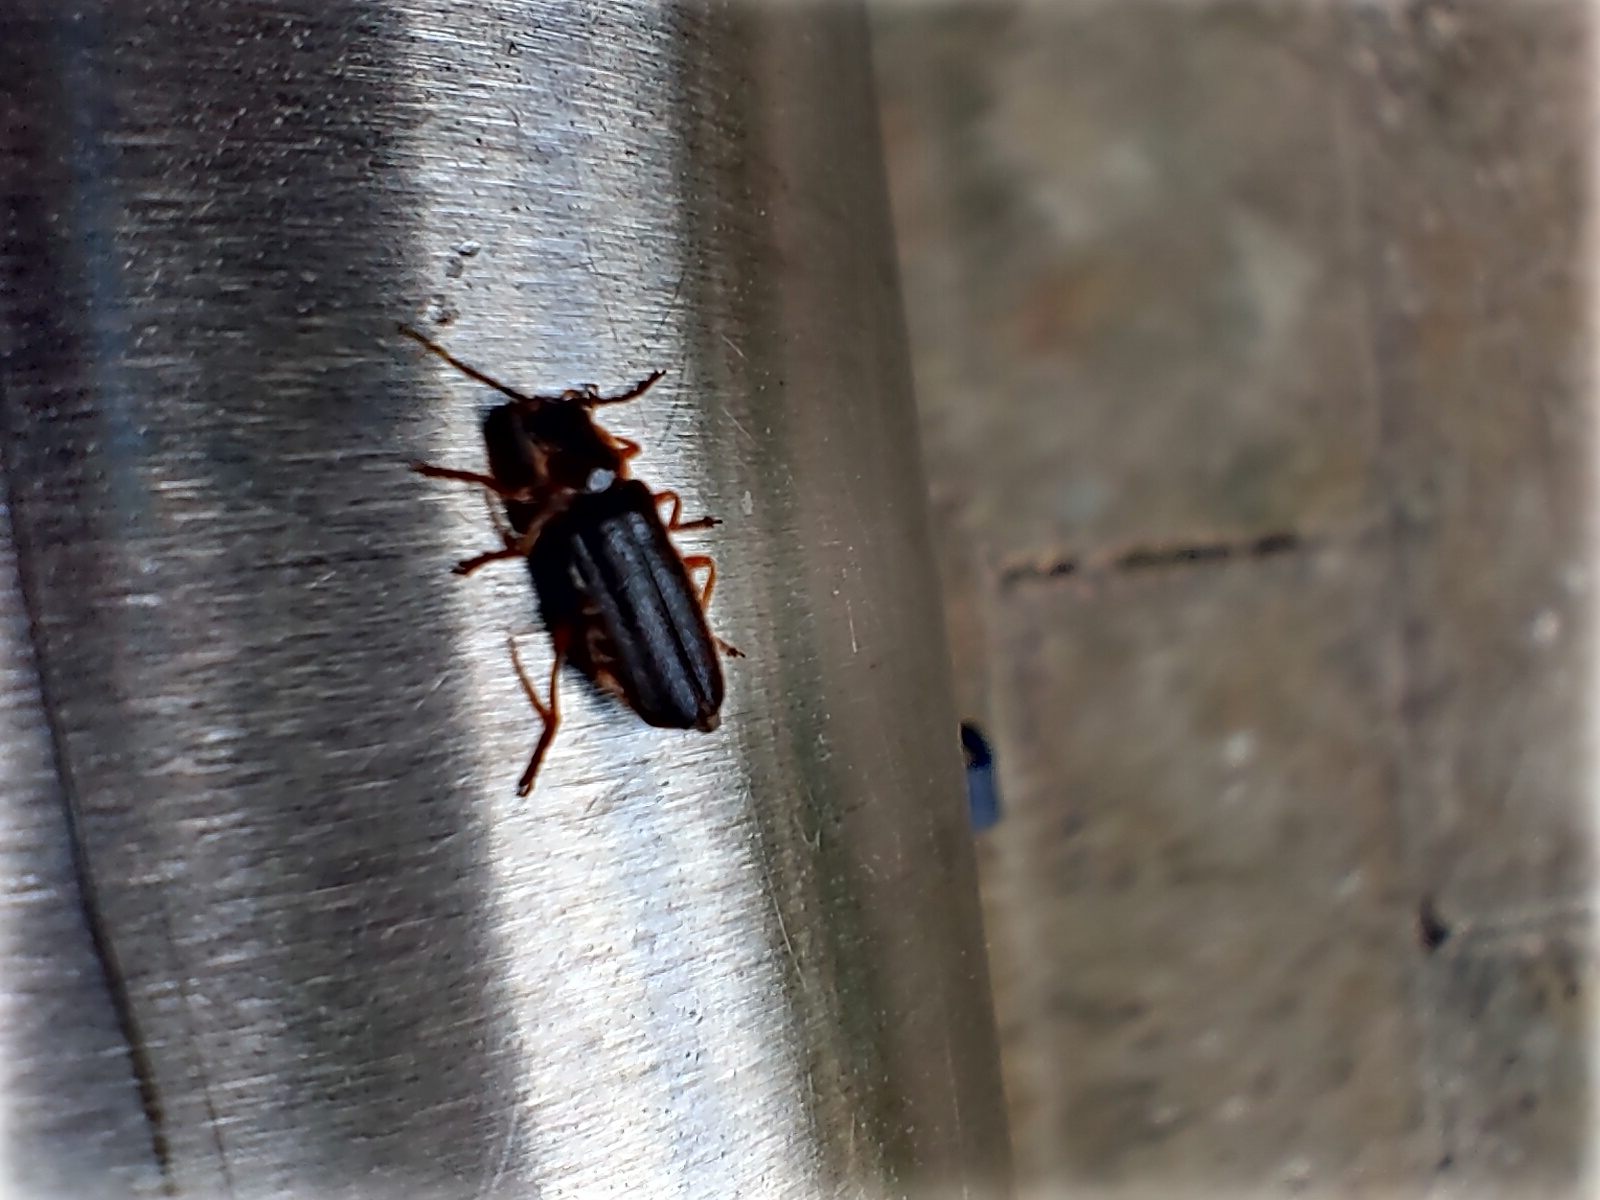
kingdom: Animalia
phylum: Arthropoda
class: Insecta
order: Coleoptera
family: Cantharidae
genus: Cantharis
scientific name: Cantharis flavilabris
